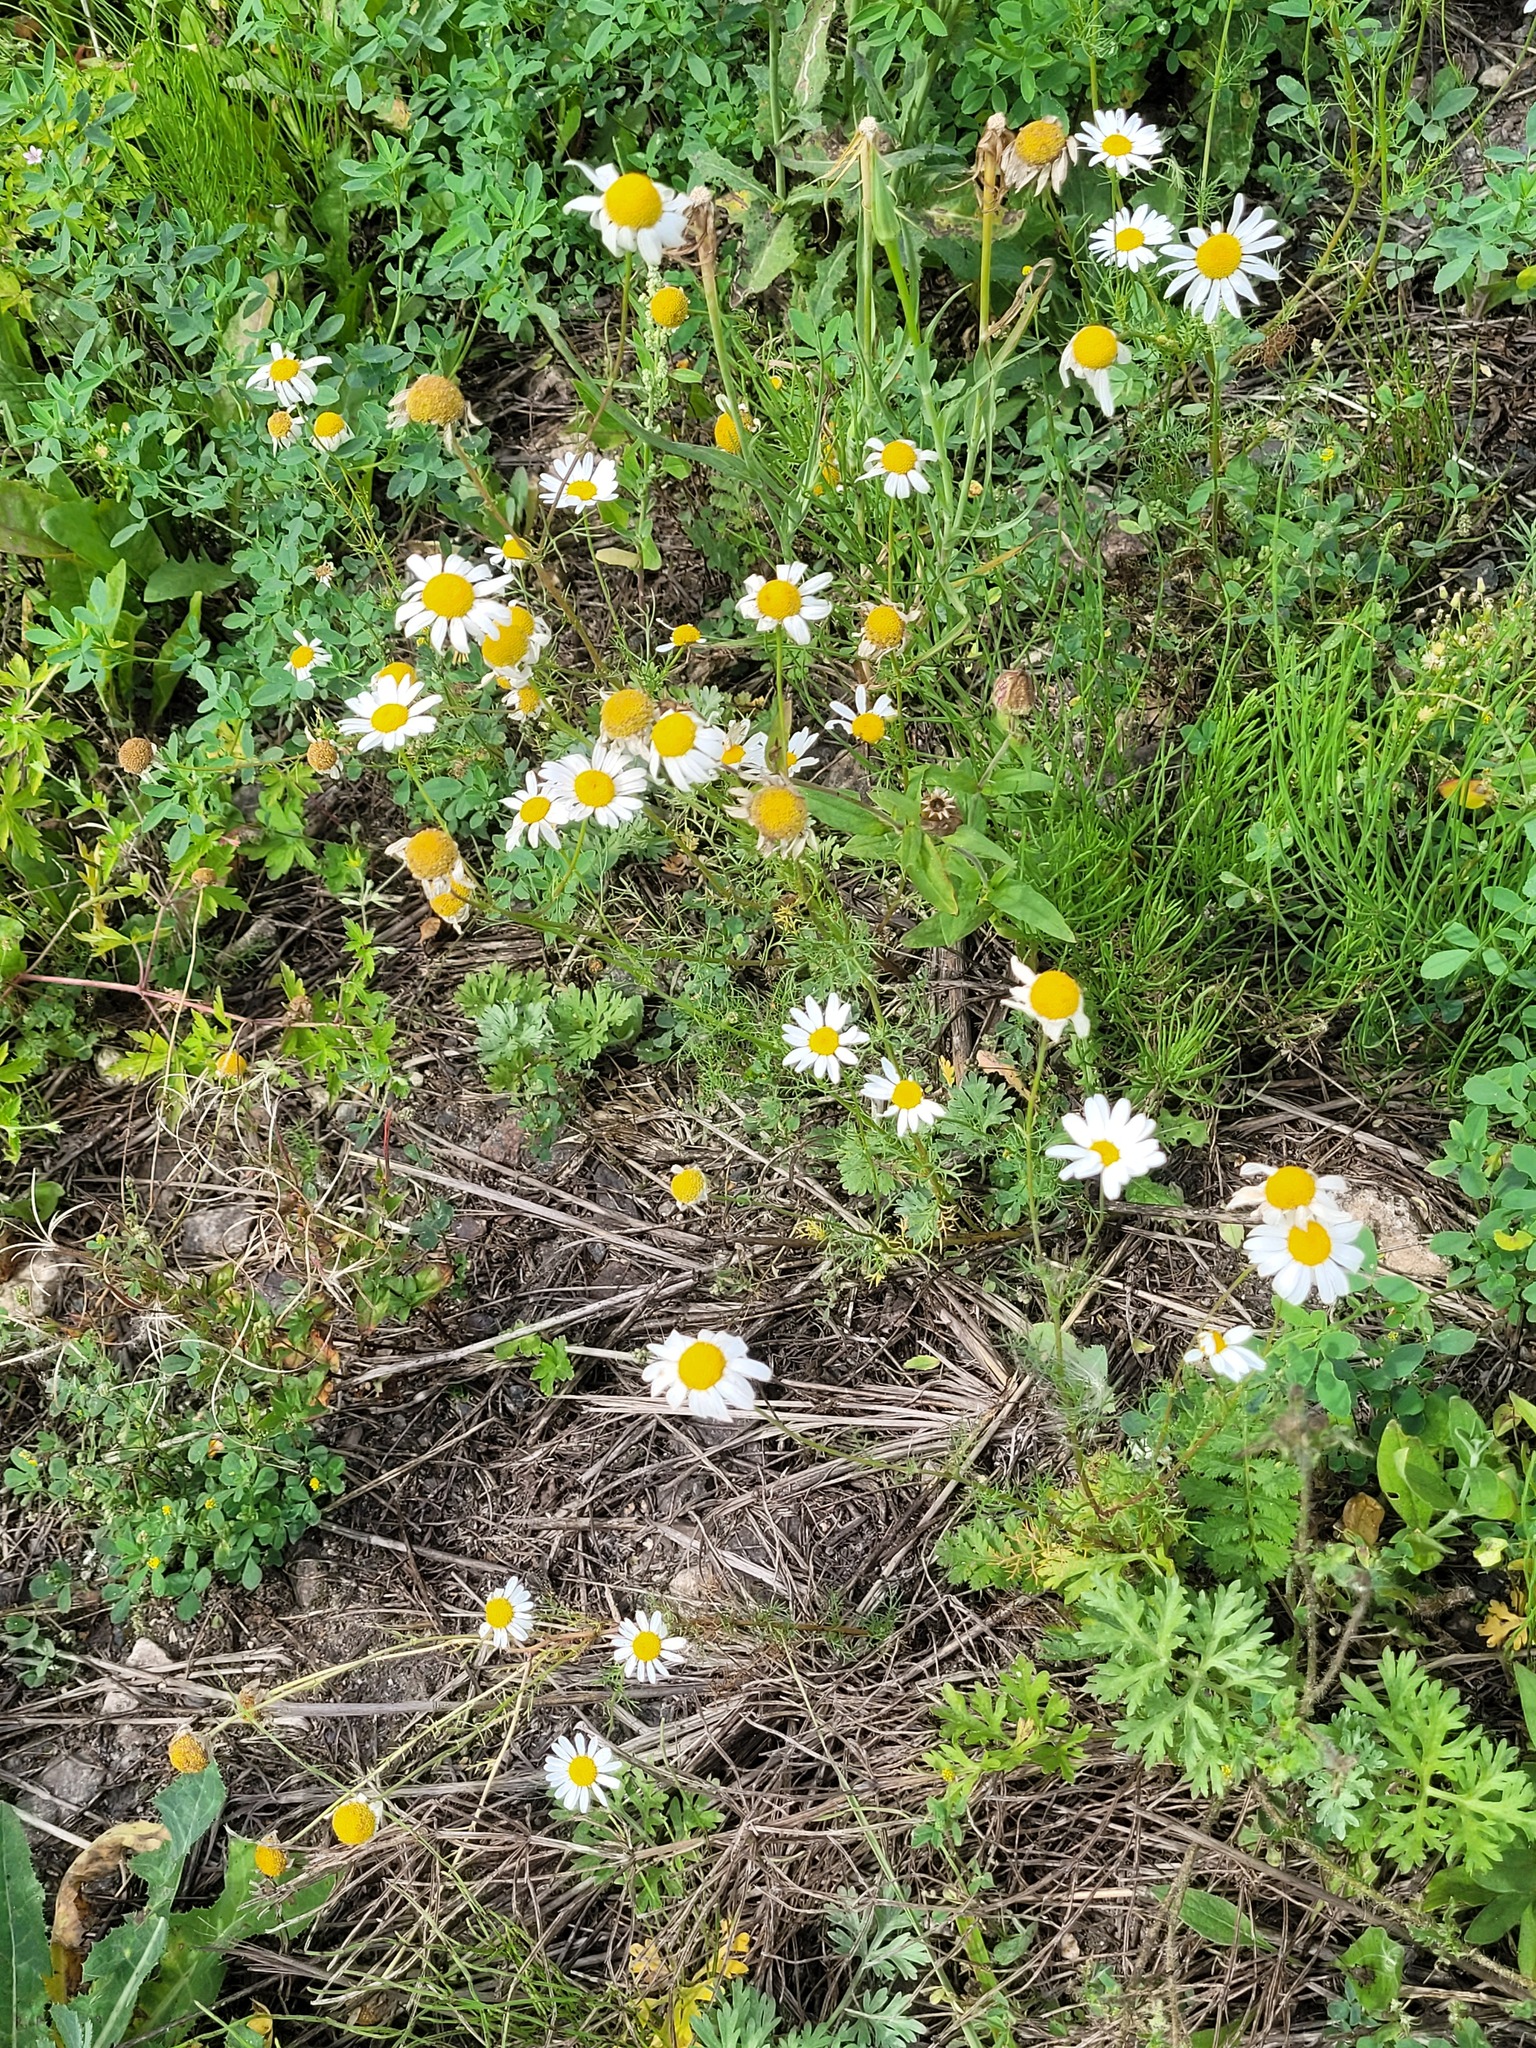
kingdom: Plantae
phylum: Tracheophyta
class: Magnoliopsida
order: Asterales
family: Asteraceae
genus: Tripleurospermum
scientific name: Tripleurospermum inodorum
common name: Scentless mayweed
